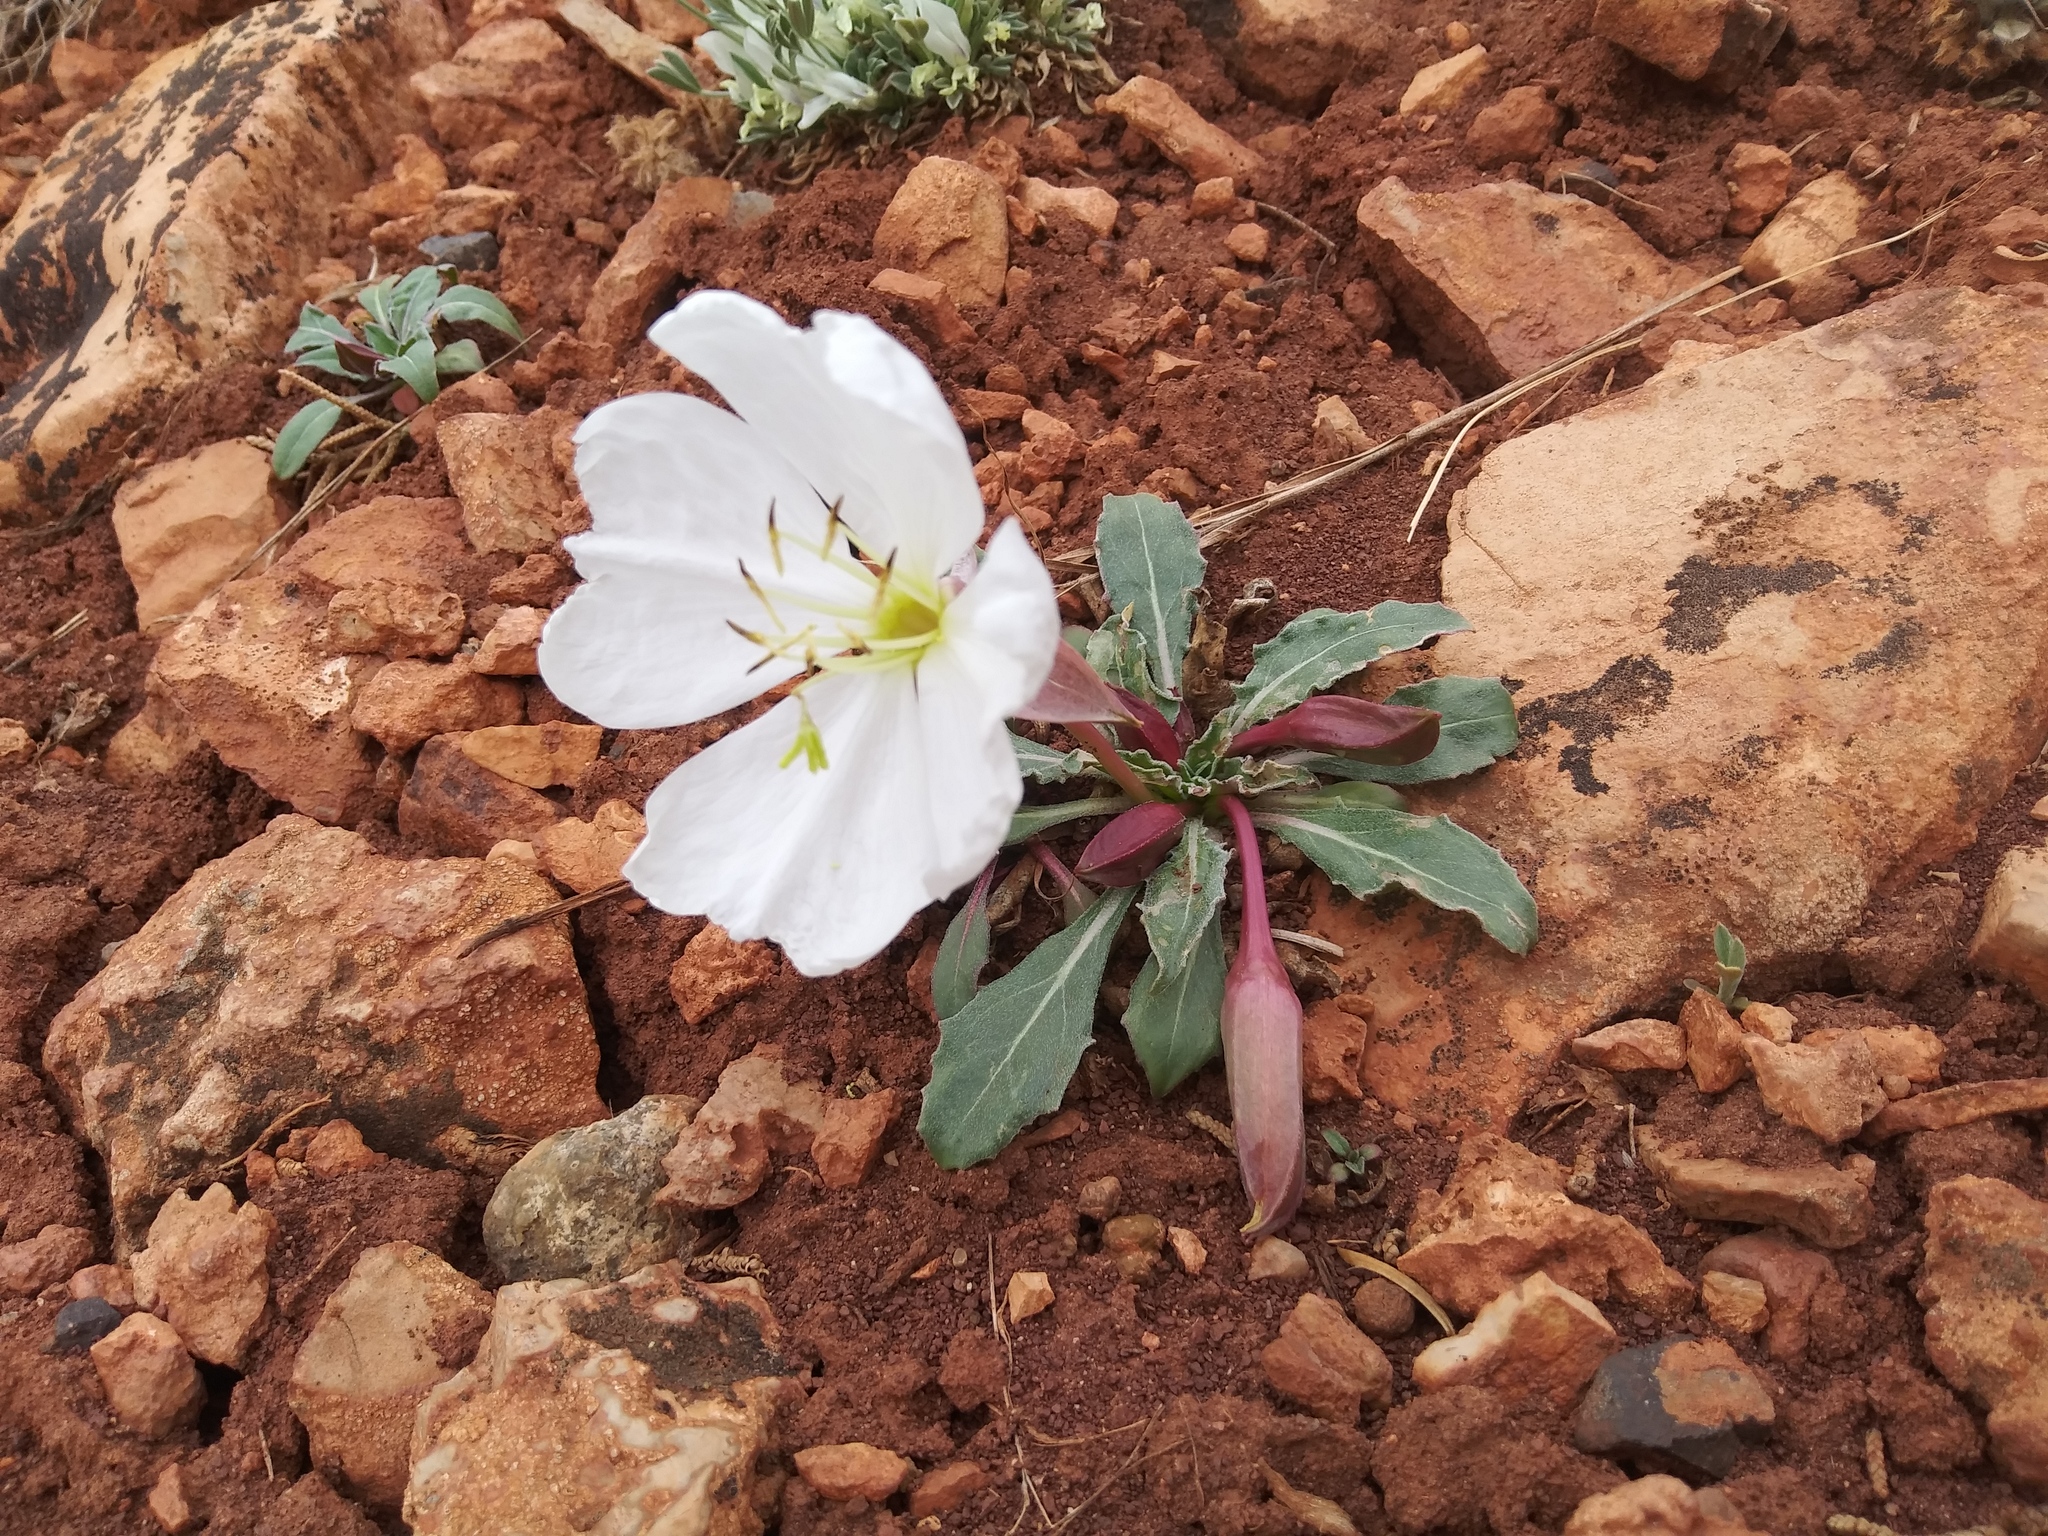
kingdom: Plantae
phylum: Tracheophyta
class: Magnoliopsida
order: Myrtales
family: Onagraceae
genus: Oenothera
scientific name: Oenothera cespitosa
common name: Tufted evening-primrose
